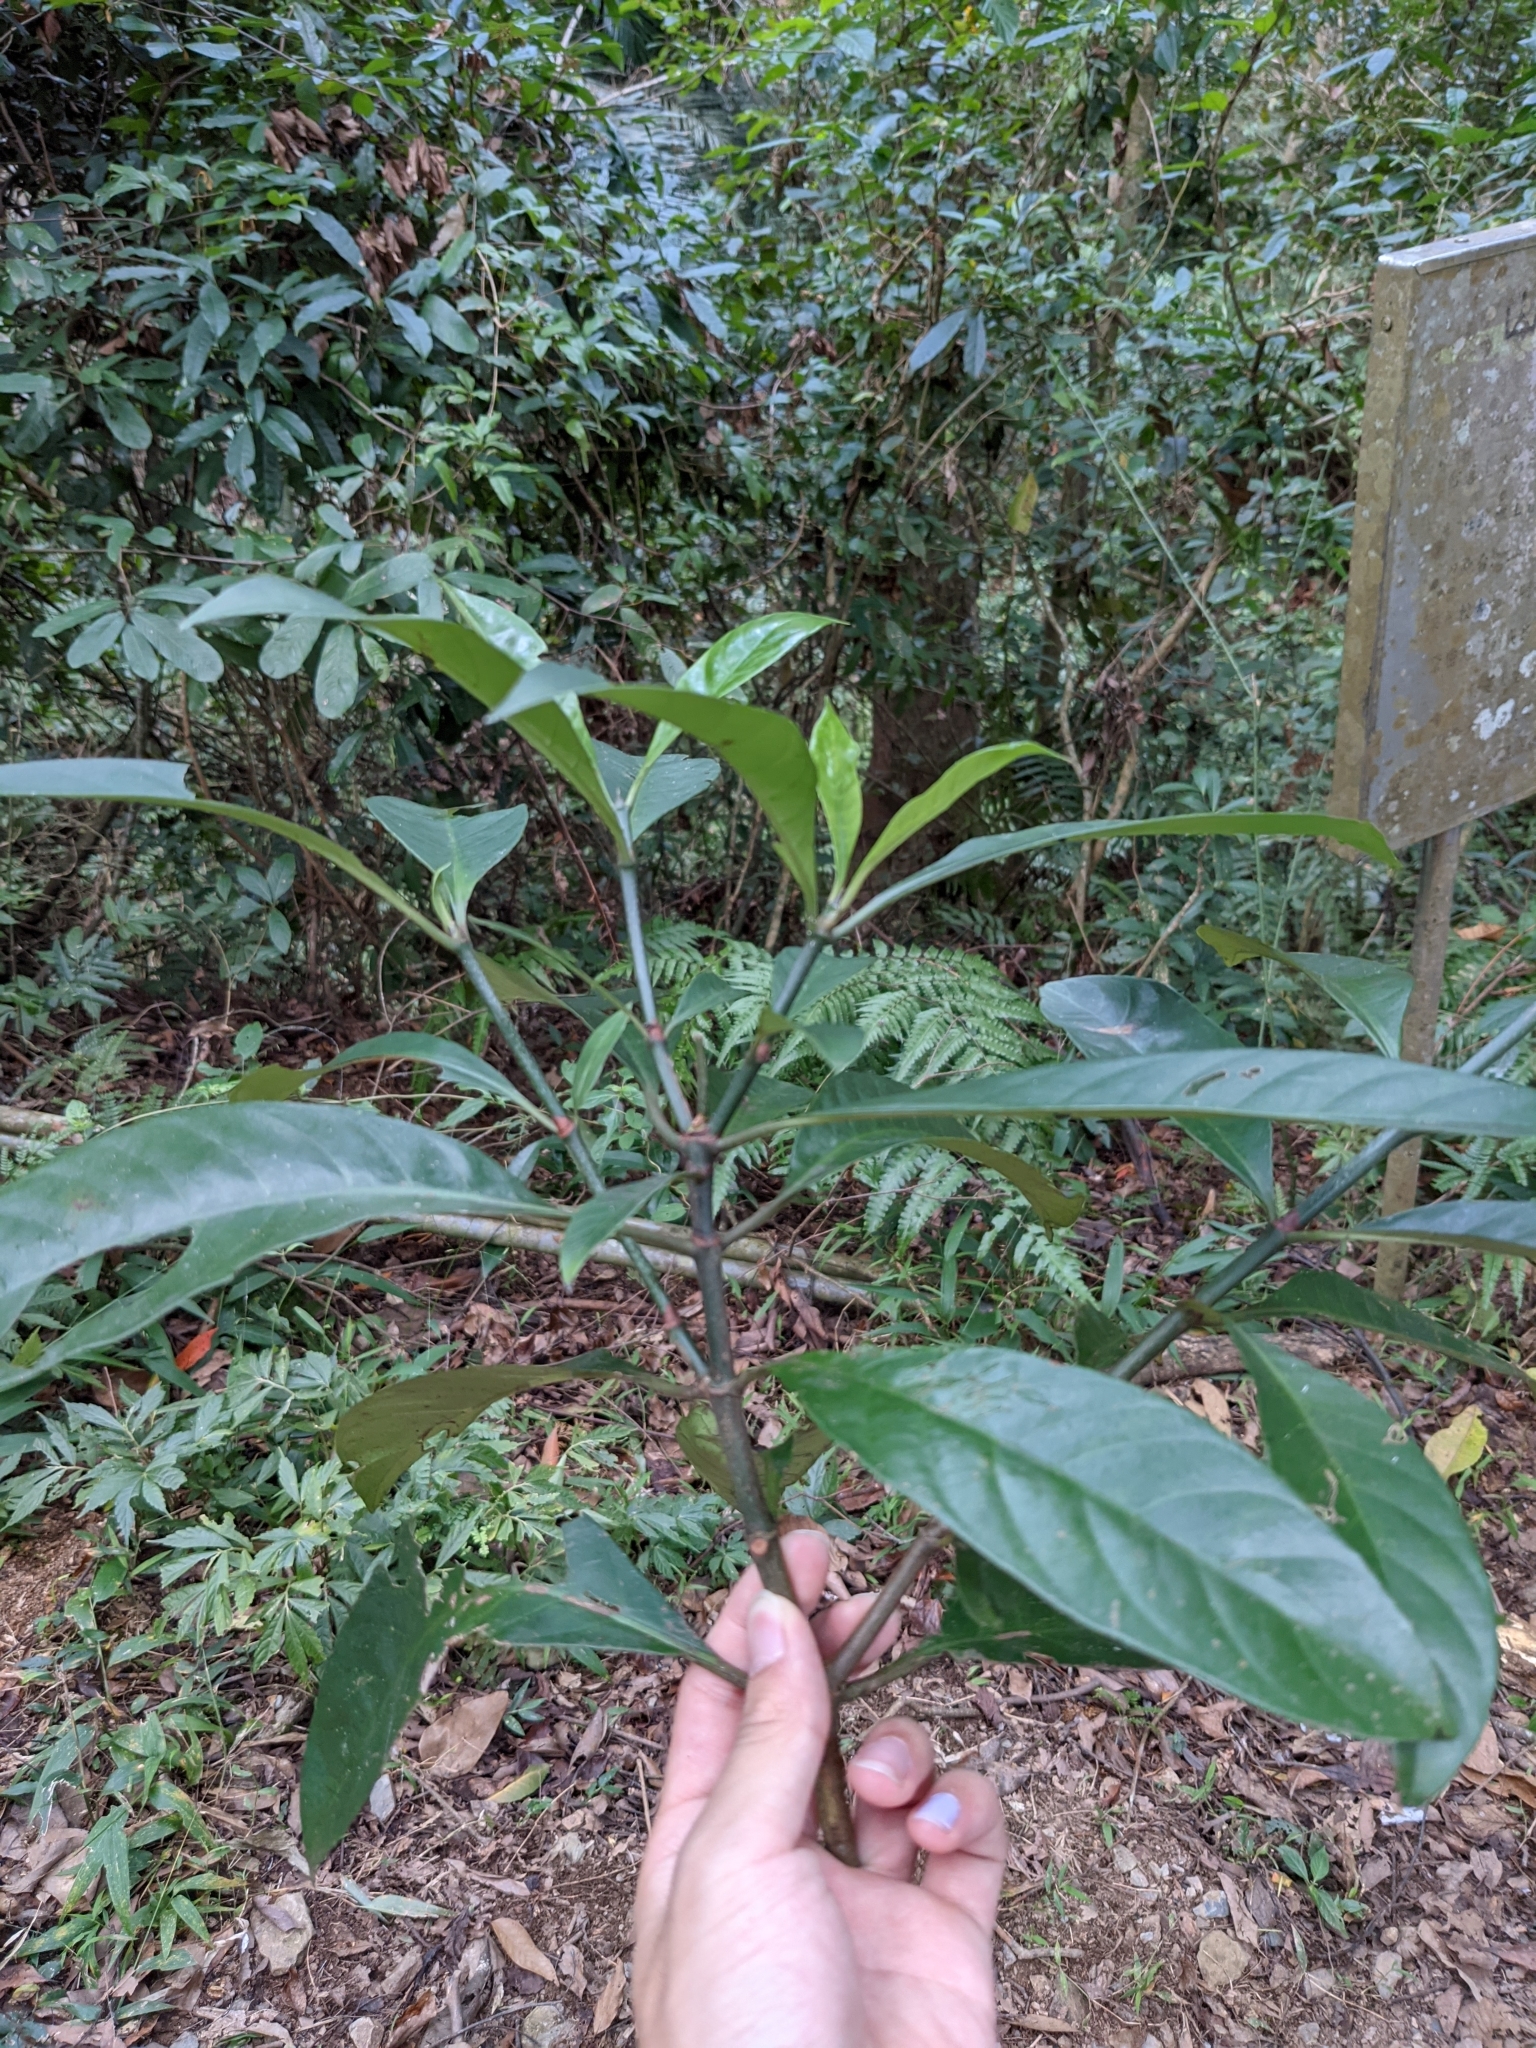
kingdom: Plantae
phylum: Tracheophyta
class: Magnoliopsida
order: Gentianales
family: Rubiaceae
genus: Psychotria
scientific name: Psychotria asiatica
